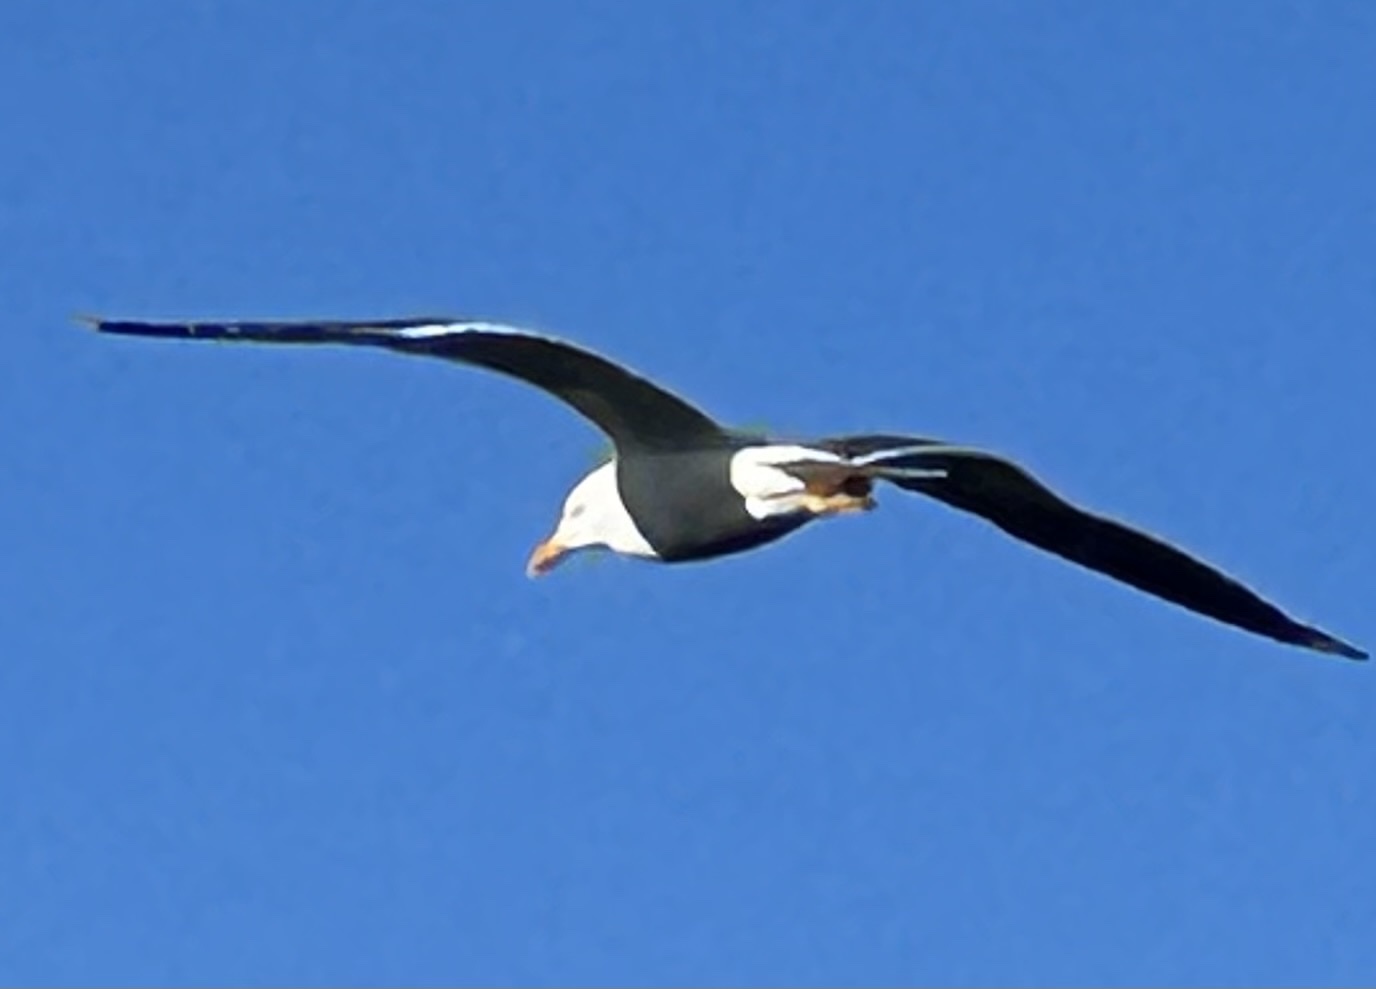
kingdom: Animalia
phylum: Chordata
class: Aves
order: Charadriiformes
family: Laridae
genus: Larus
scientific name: Larus fuscus
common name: Lesser black-backed gull
